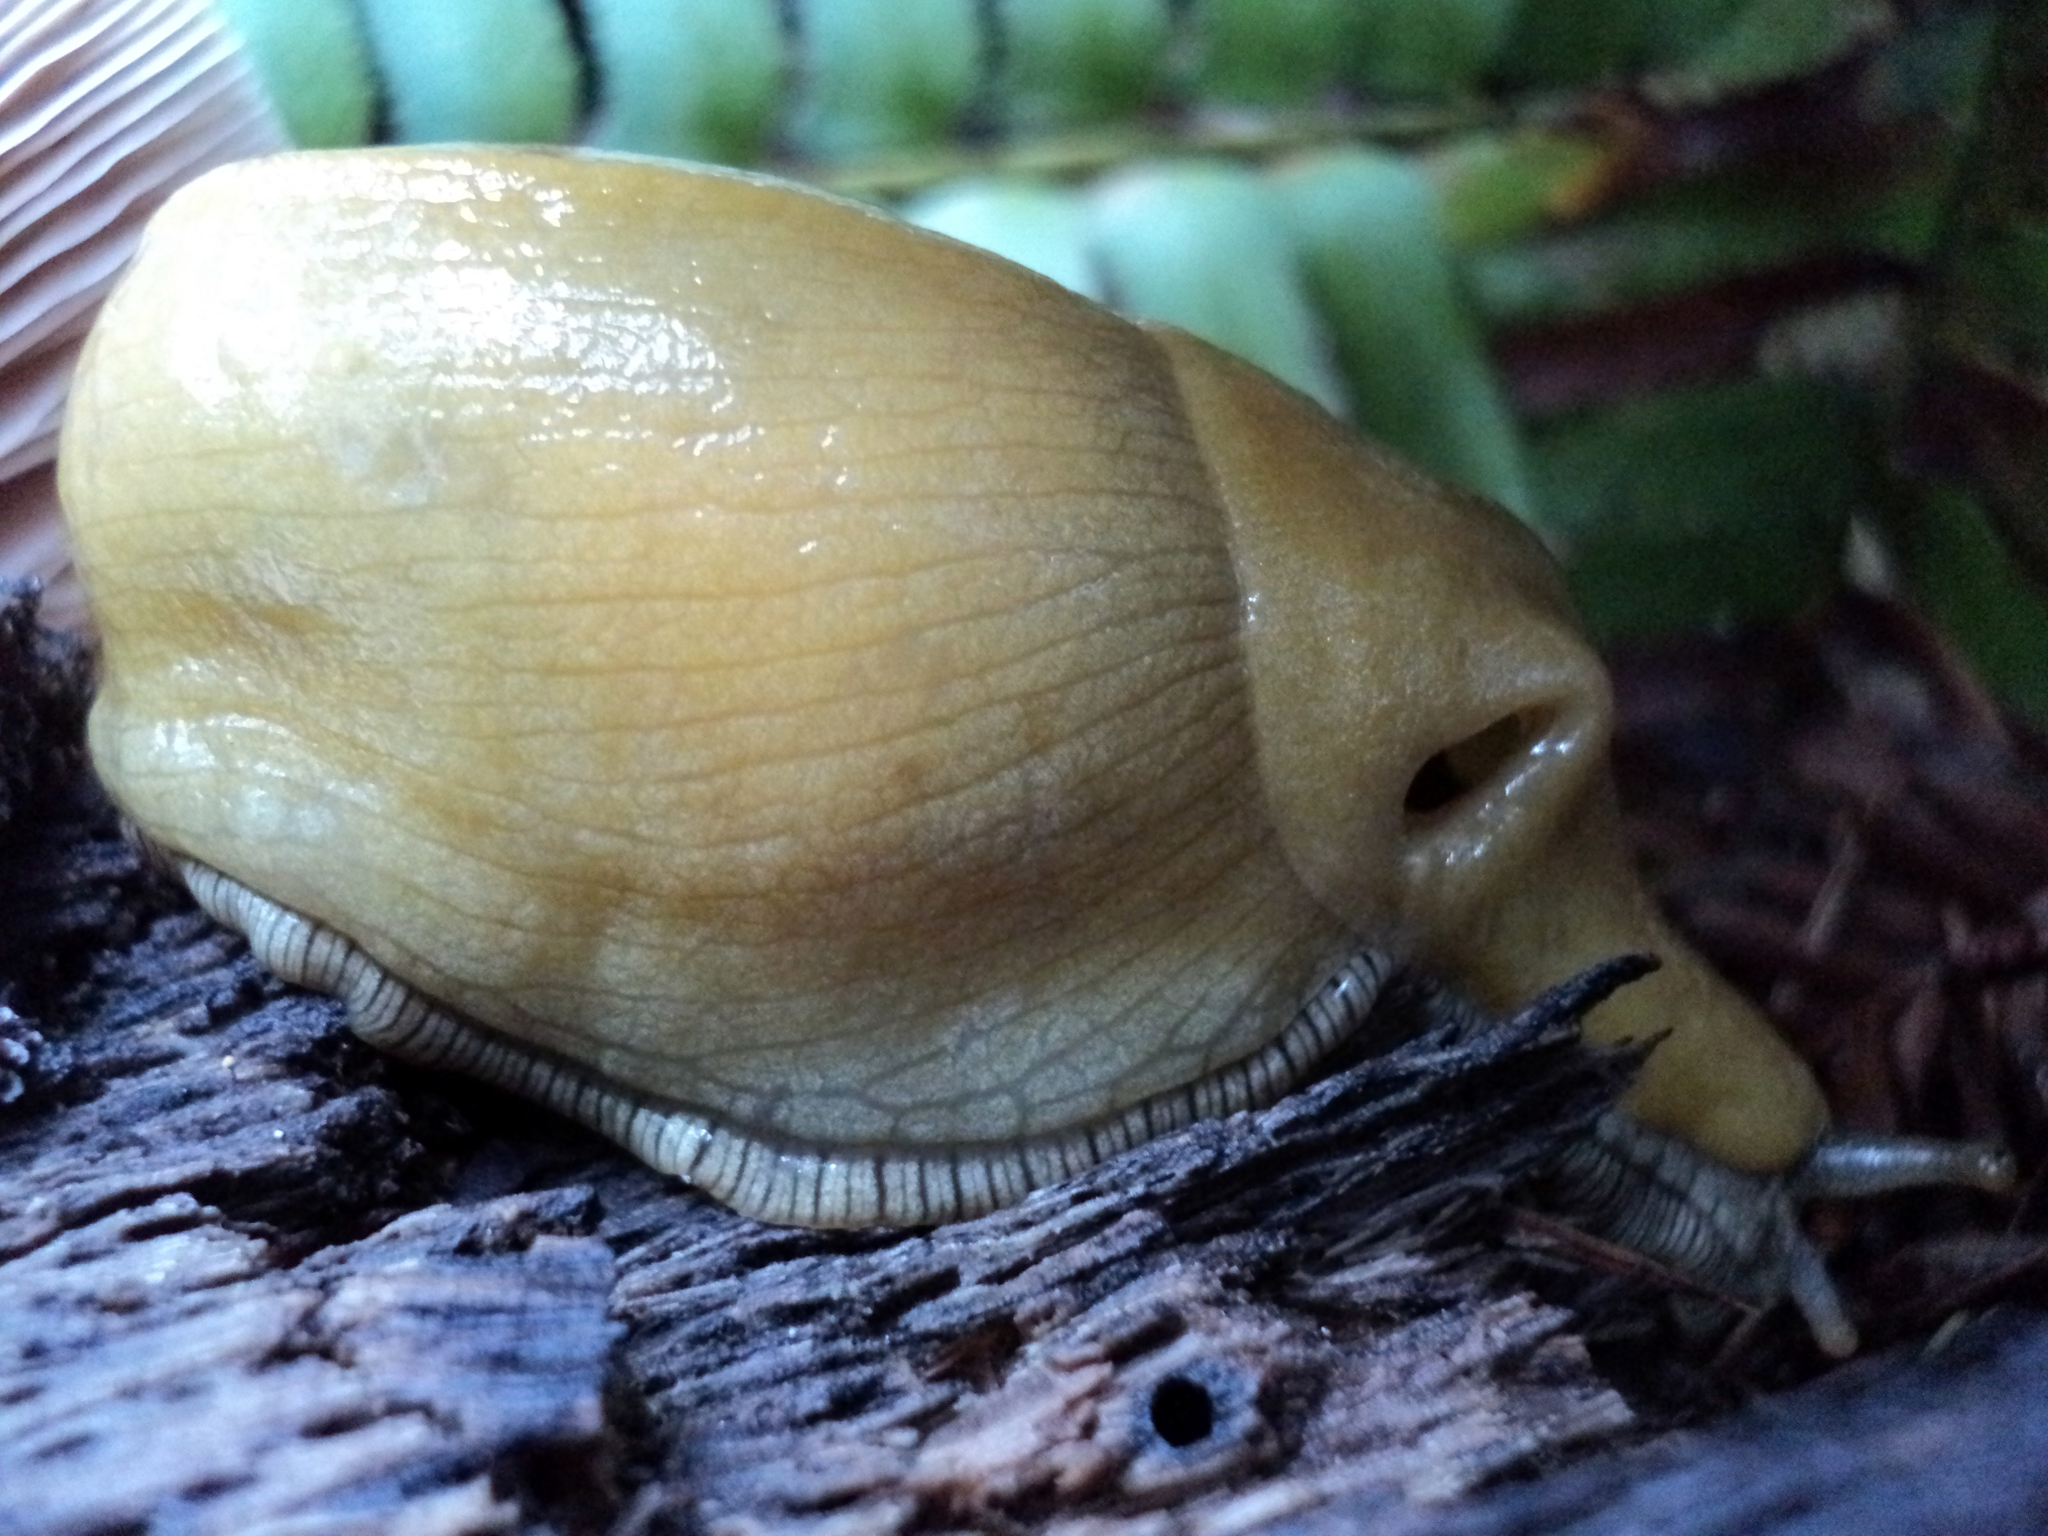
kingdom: Fungi
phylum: Basidiomycota
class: Agaricomycetes
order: Agaricales
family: Pluteaceae
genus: Pluteus
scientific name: Pluteus cervinus
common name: Deer shield
